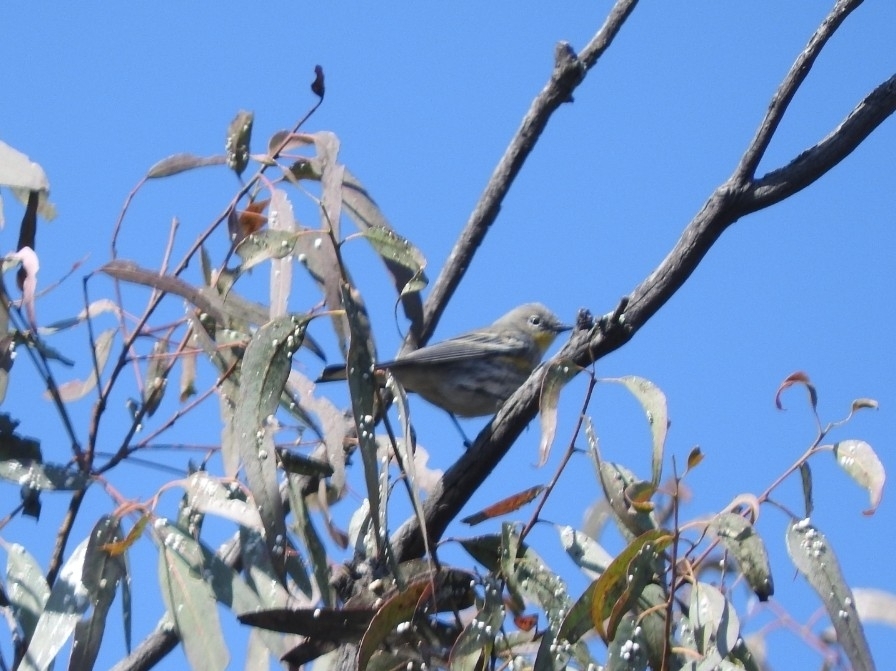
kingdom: Animalia
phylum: Chordata
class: Aves
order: Passeriformes
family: Parulidae
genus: Setophaga
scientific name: Setophaga coronata
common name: Myrtle warbler
